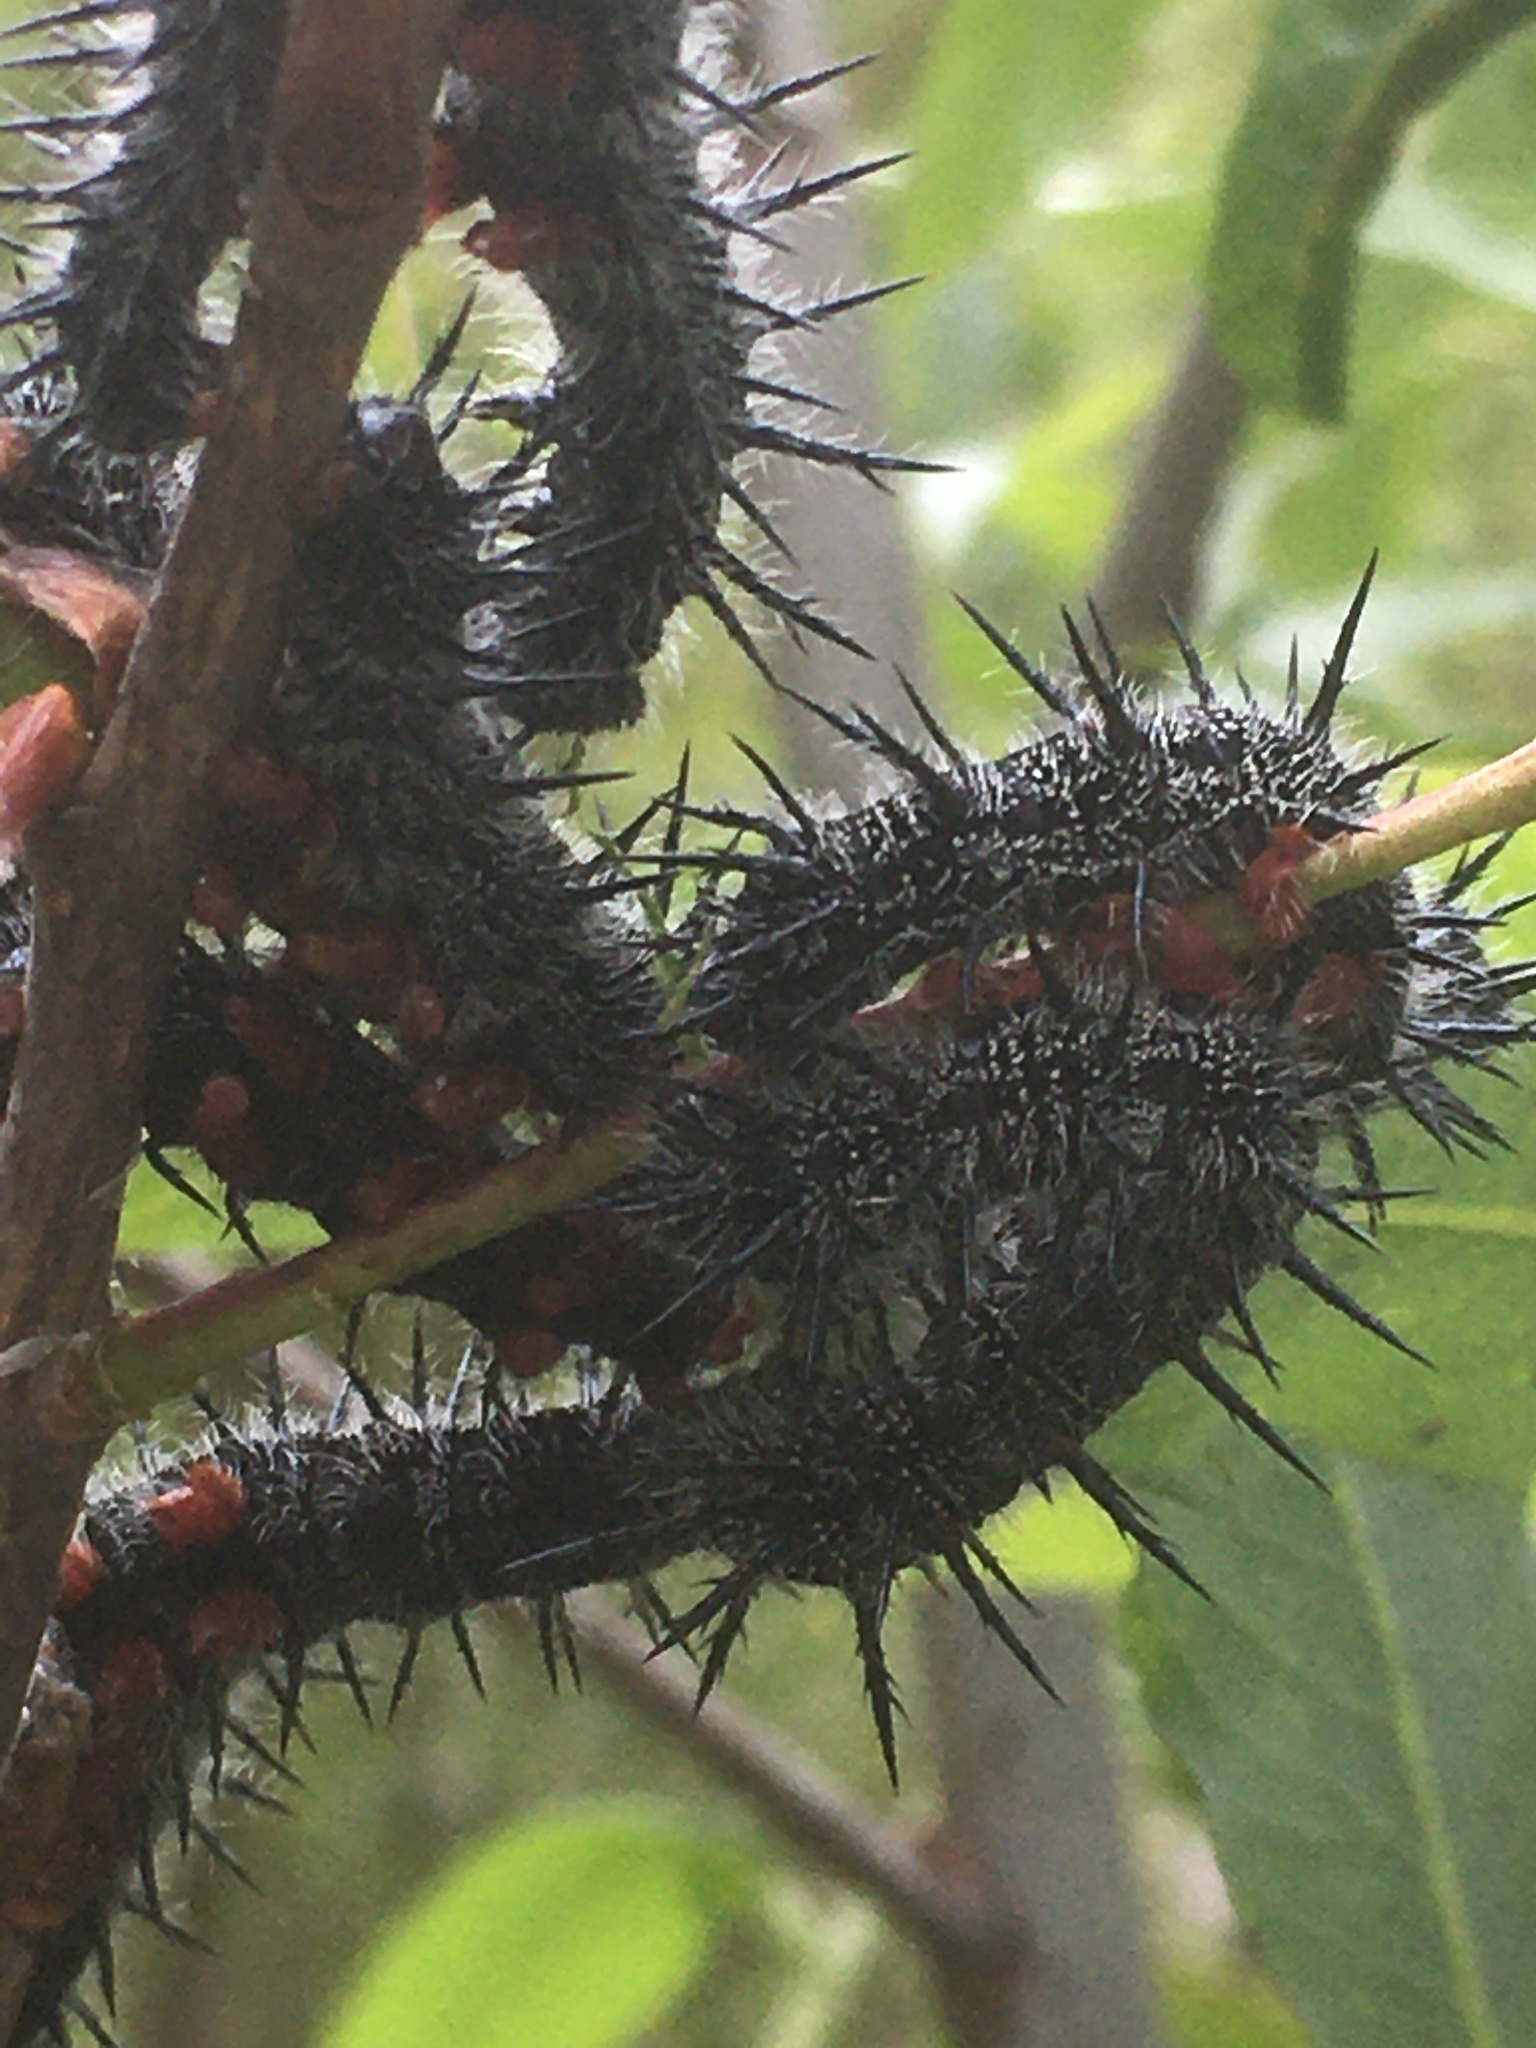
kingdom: Animalia
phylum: Arthropoda
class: Insecta
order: Lepidoptera
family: Nymphalidae
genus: Nymphalis
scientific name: Nymphalis antiopa
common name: Camberwell beauty
